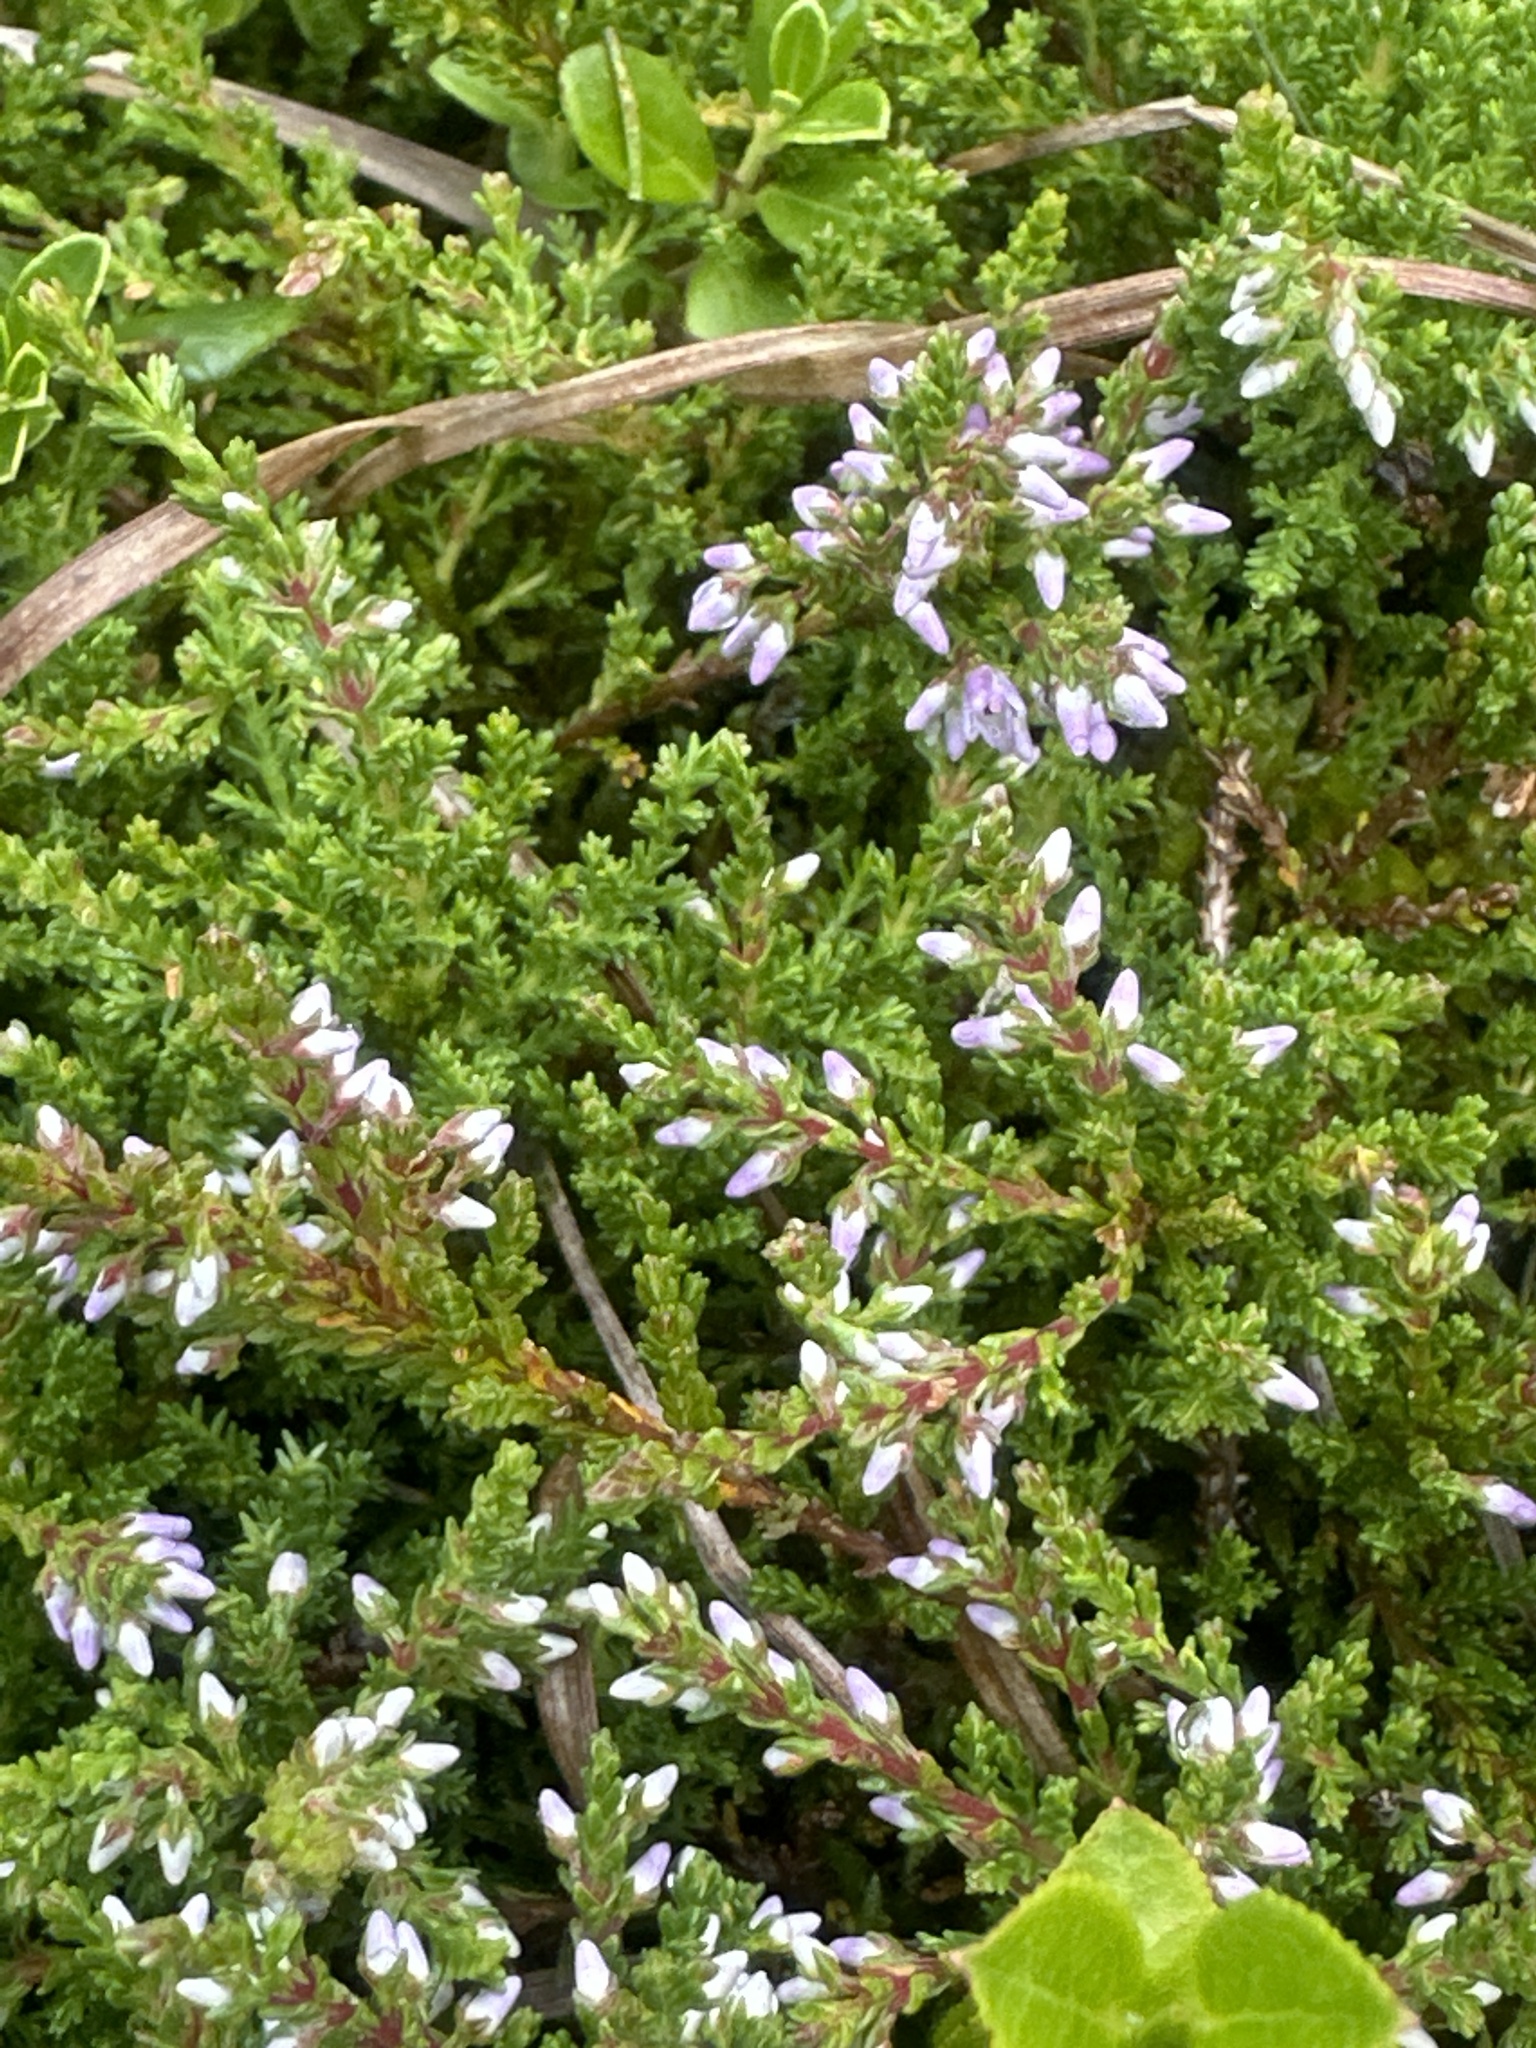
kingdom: Plantae
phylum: Tracheophyta
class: Magnoliopsida
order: Ericales
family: Ericaceae
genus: Calluna
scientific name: Calluna vulgaris
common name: Heather
